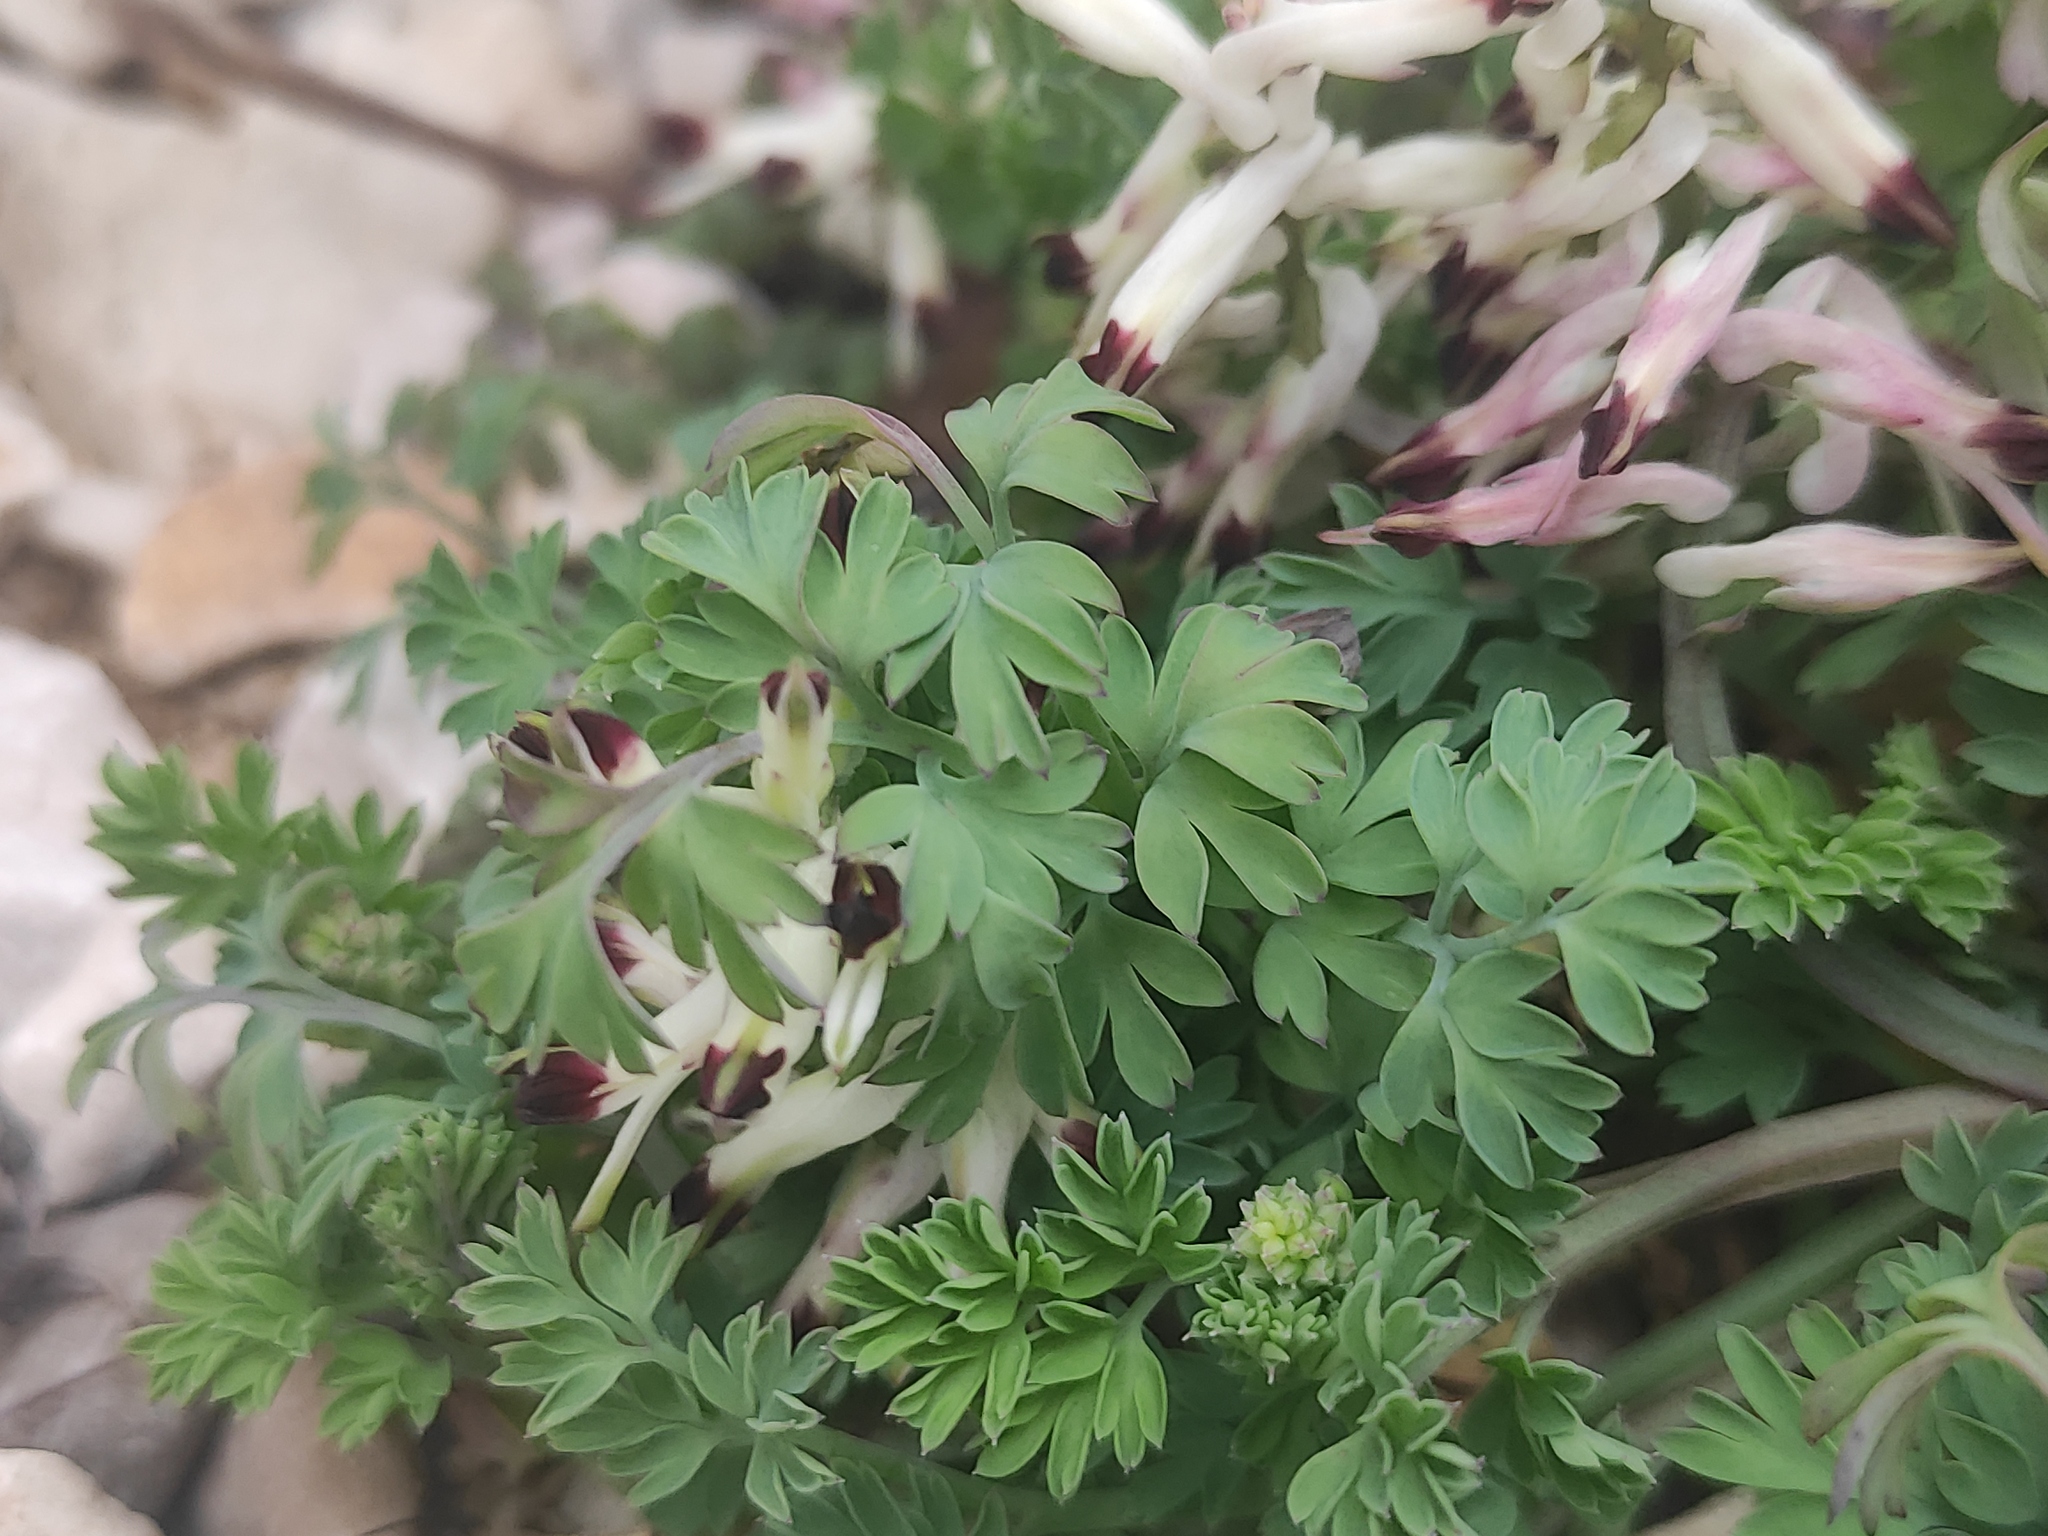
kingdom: Plantae
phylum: Tracheophyta
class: Magnoliopsida
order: Ranunculales
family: Papaveraceae
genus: Fumaria
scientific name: Fumaria flabellata
